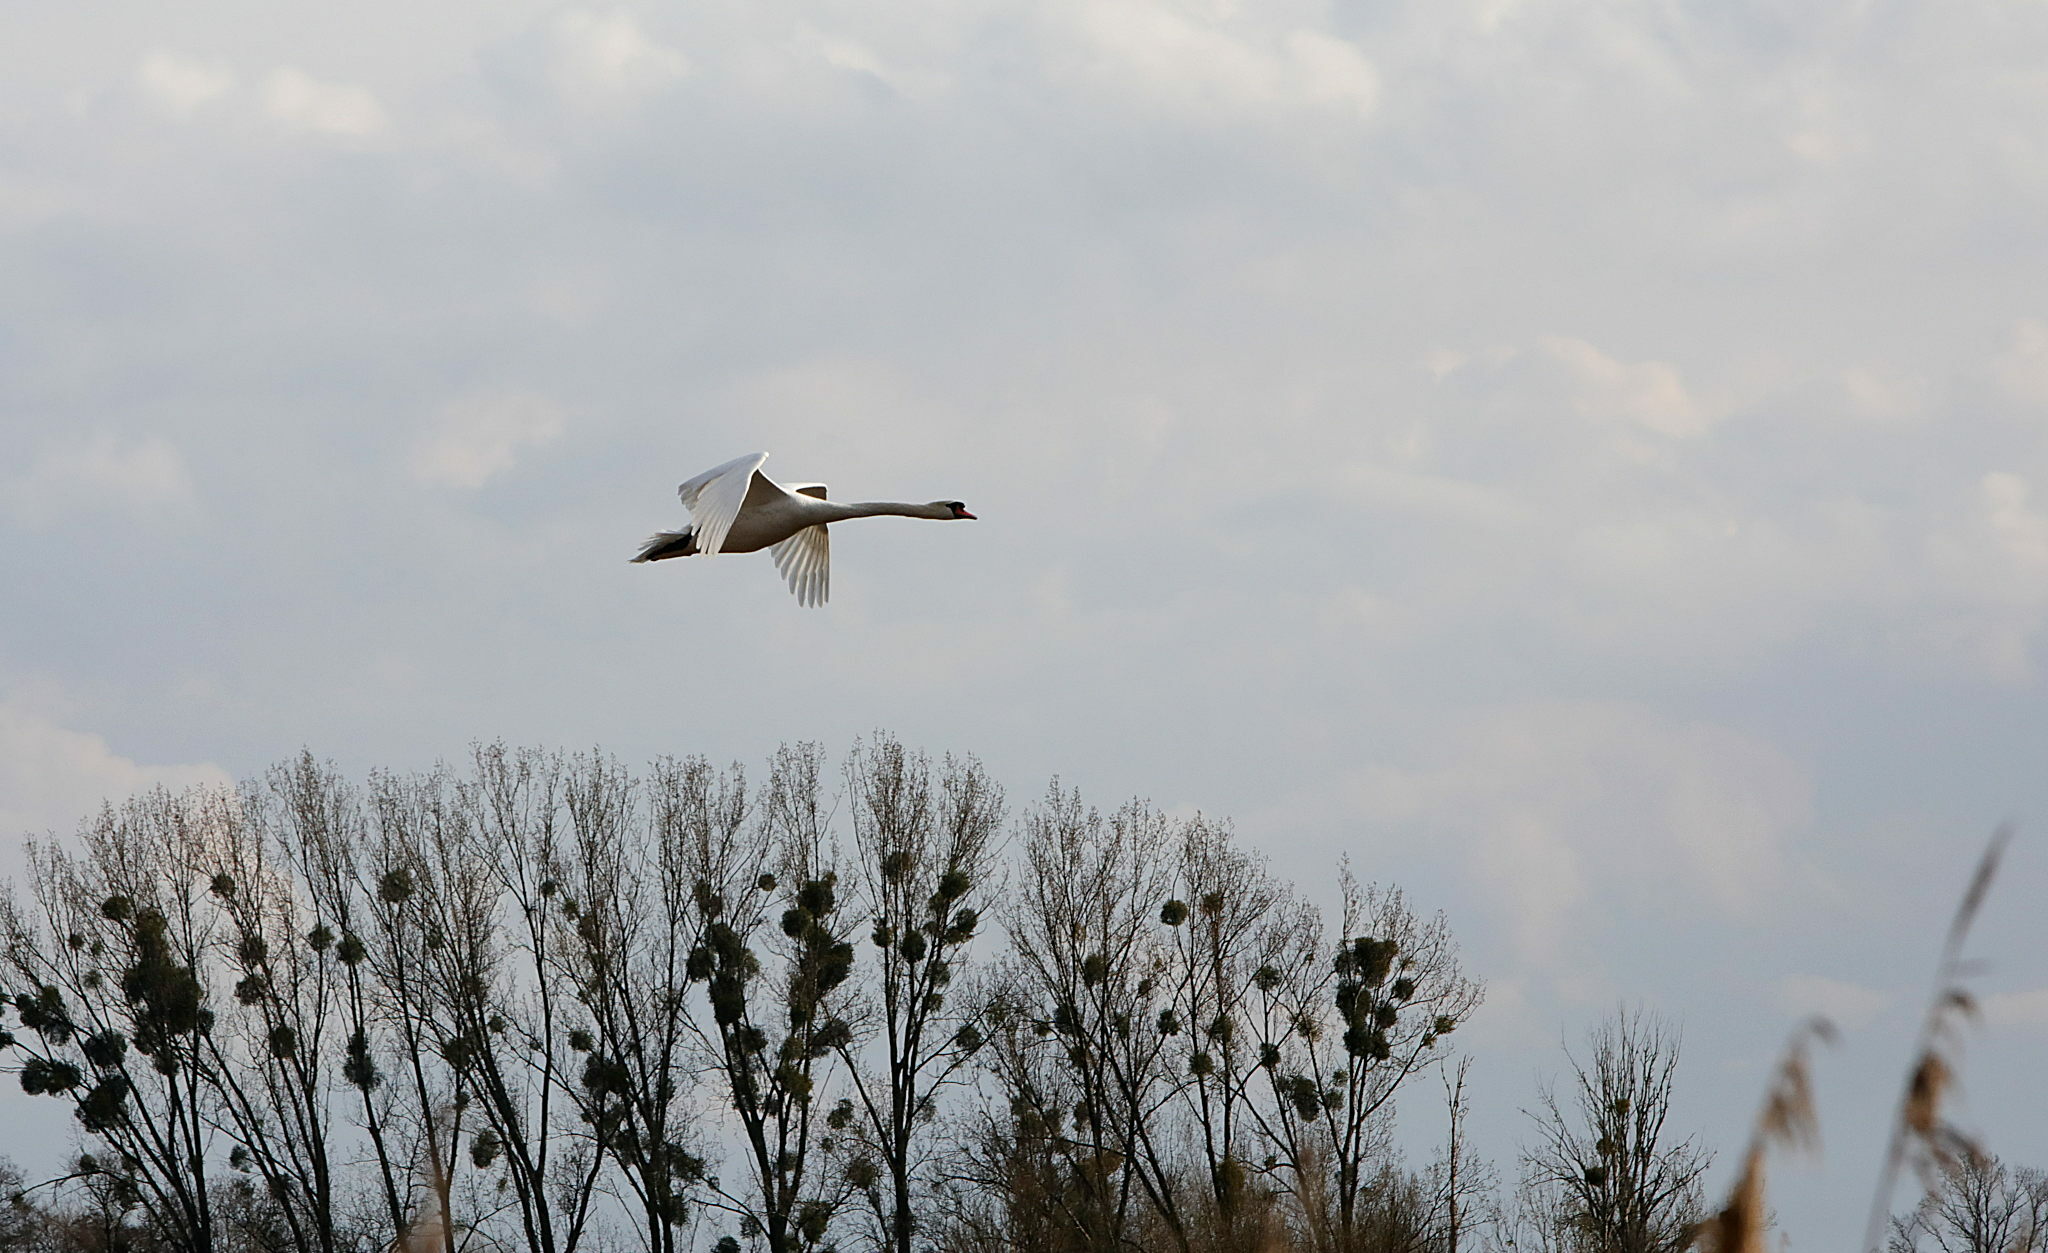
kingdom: Animalia
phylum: Chordata
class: Aves
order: Anseriformes
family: Anatidae
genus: Cygnus
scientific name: Cygnus olor
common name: Mute swan
